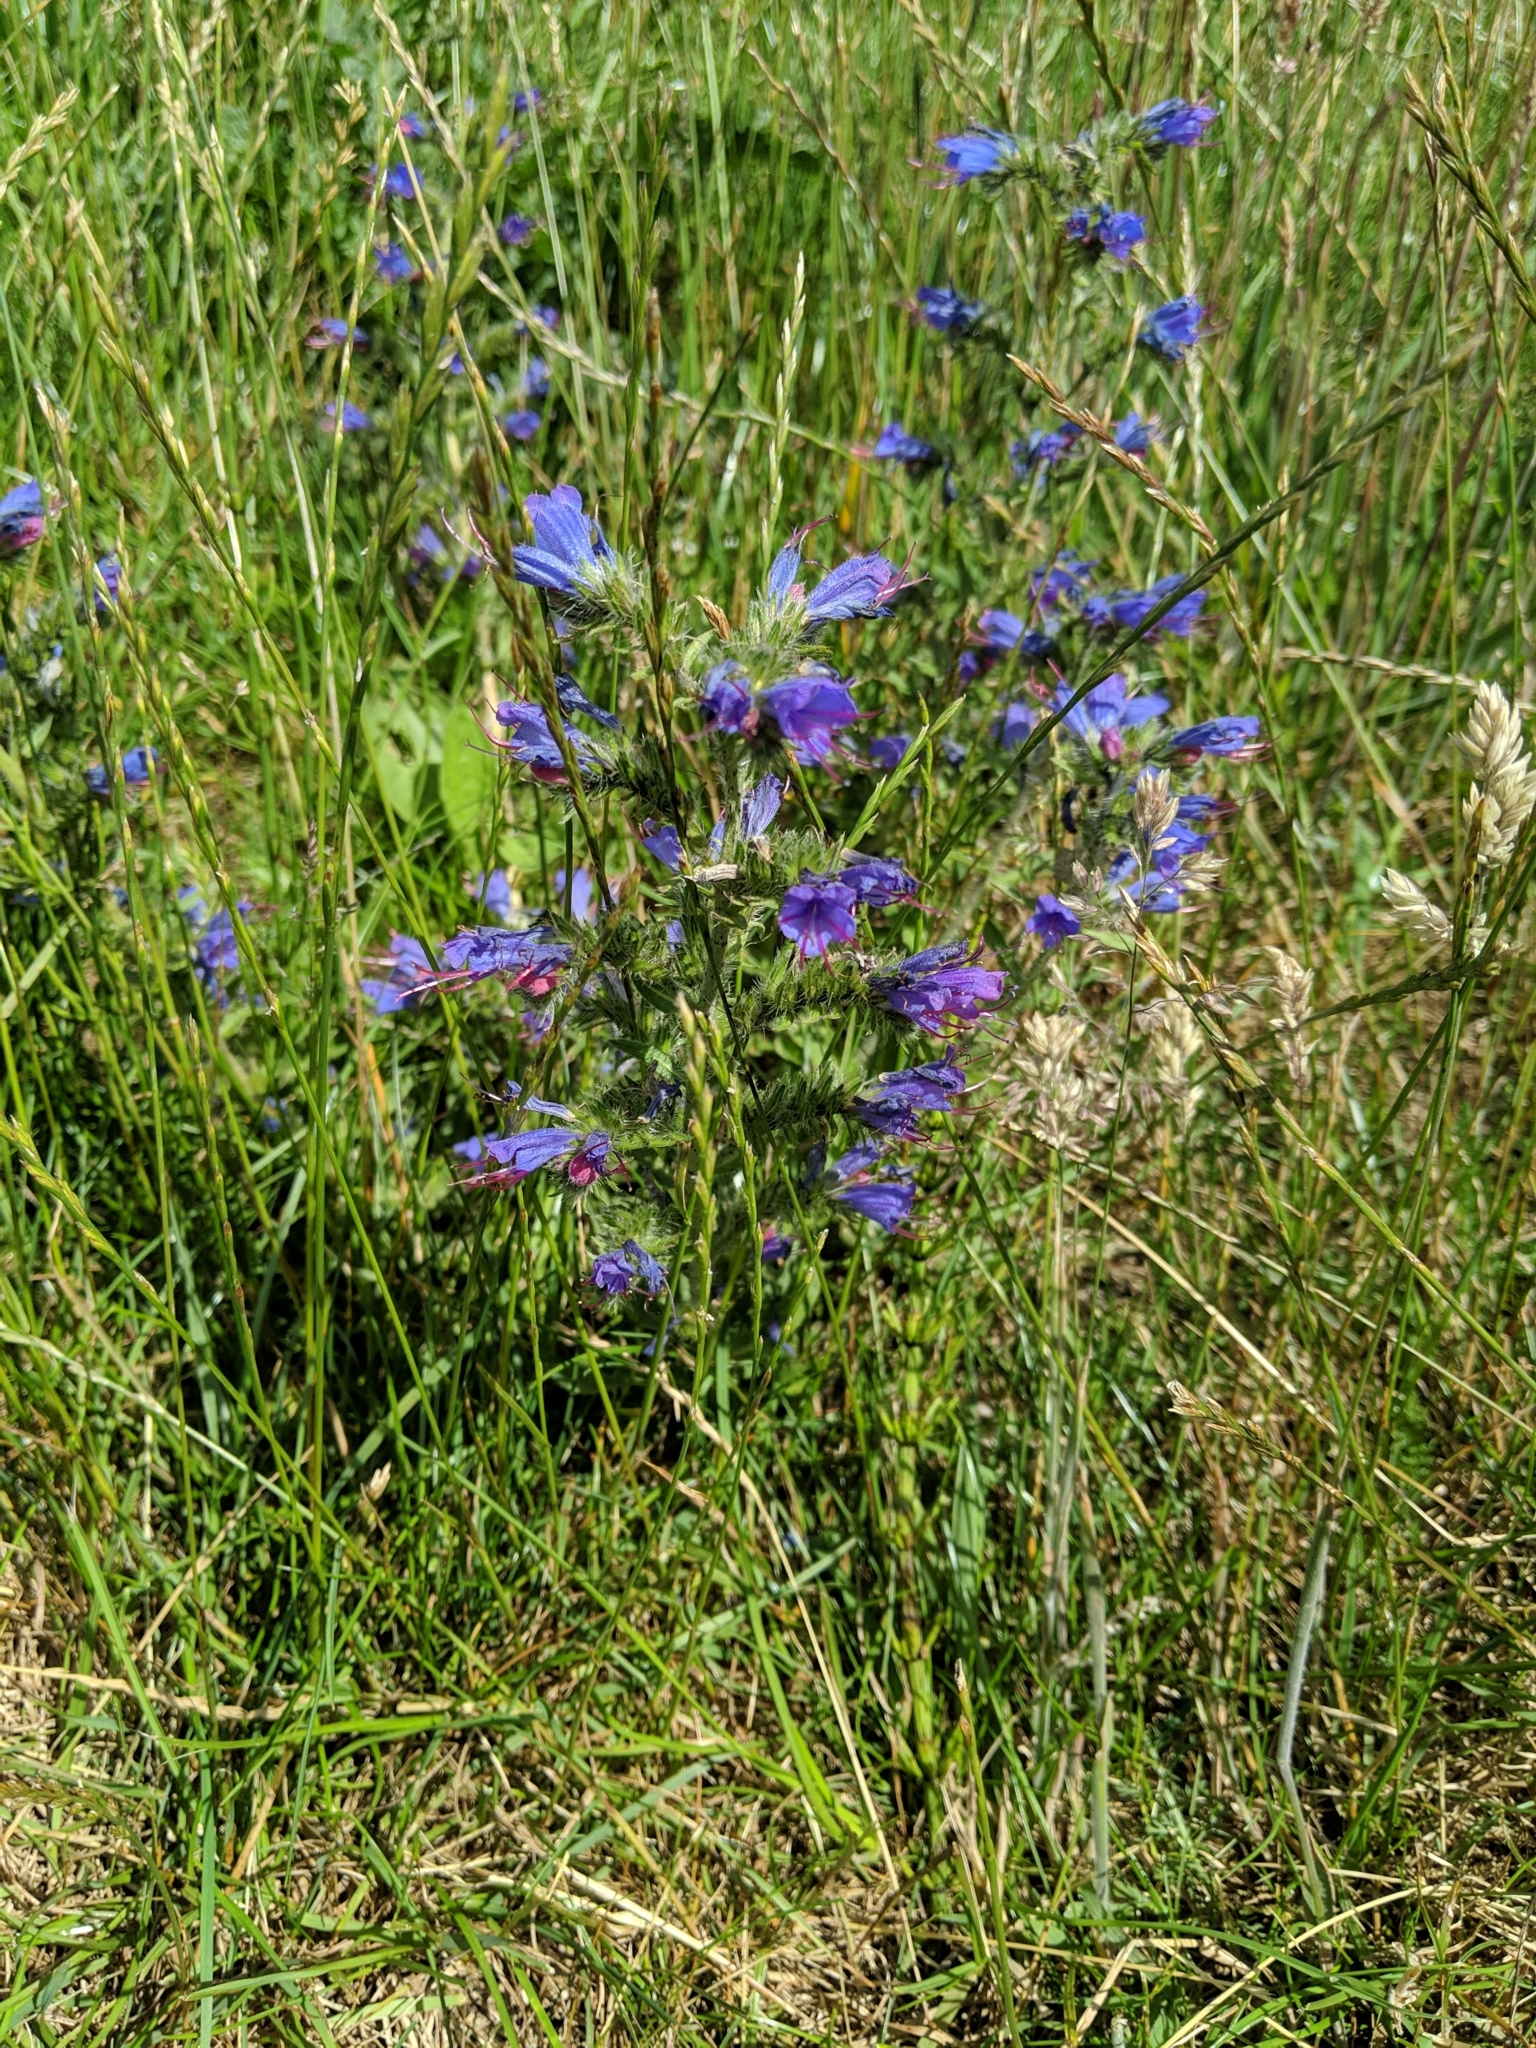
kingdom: Plantae
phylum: Tracheophyta
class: Magnoliopsida
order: Boraginales
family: Boraginaceae
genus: Echium
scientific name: Echium vulgare
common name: Common viper's bugloss
